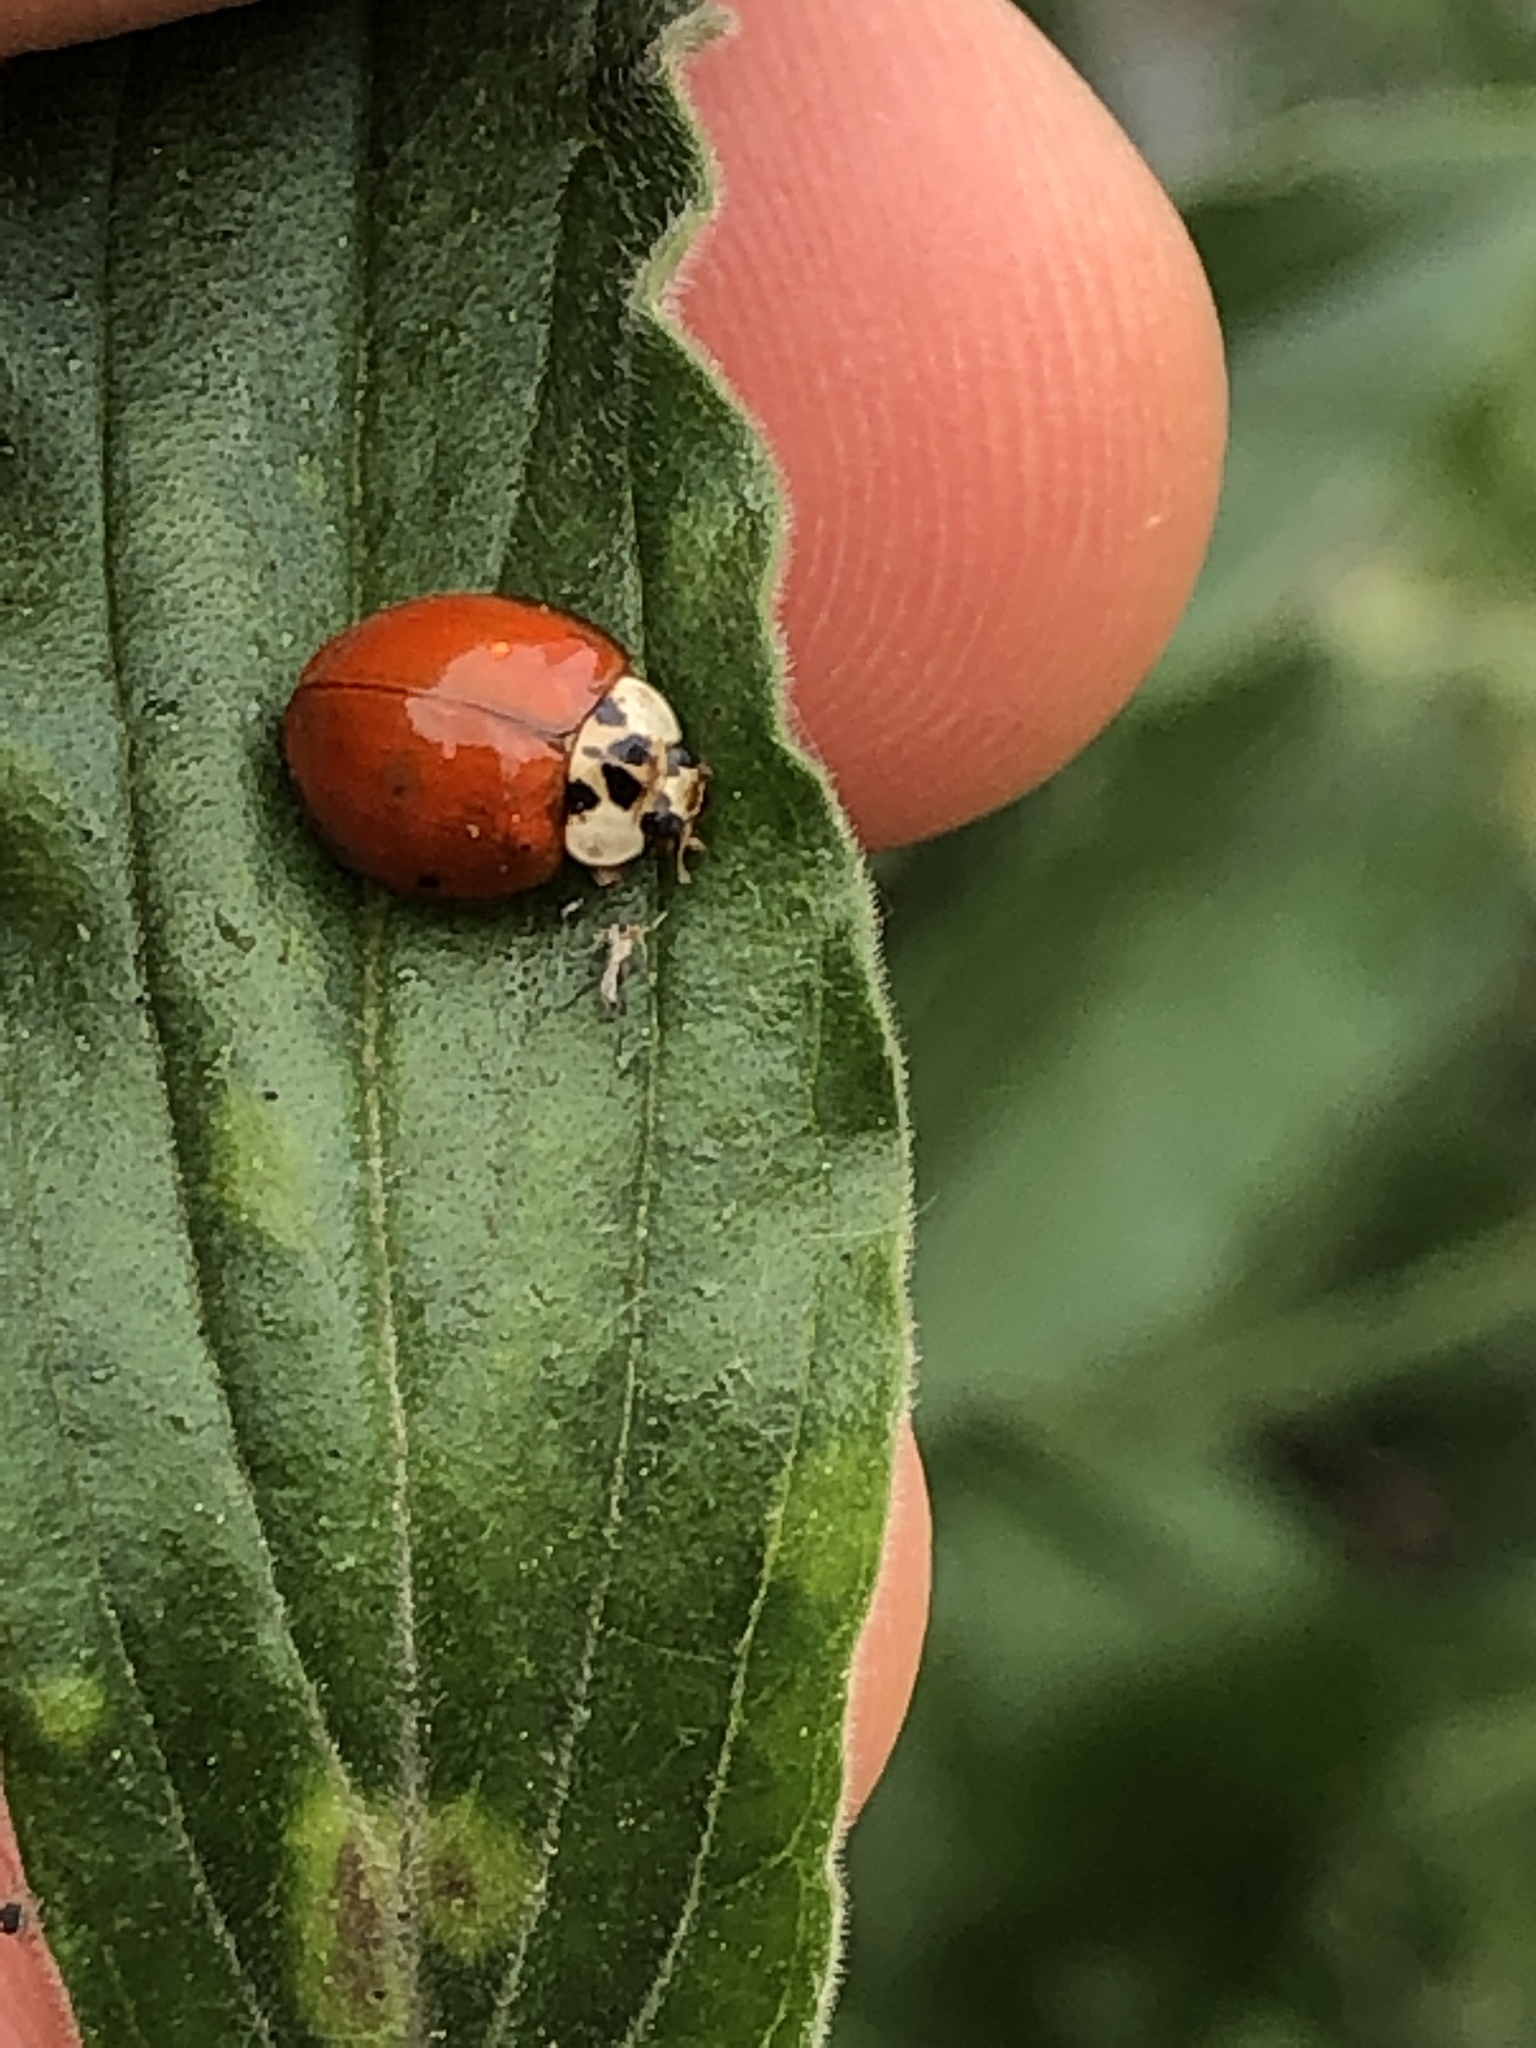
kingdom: Animalia
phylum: Arthropoda
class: Insecta
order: Coleoptera
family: Coccinellidae
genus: Harmonia
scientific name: Harmonia axyridis
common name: Harlequin ladybird
